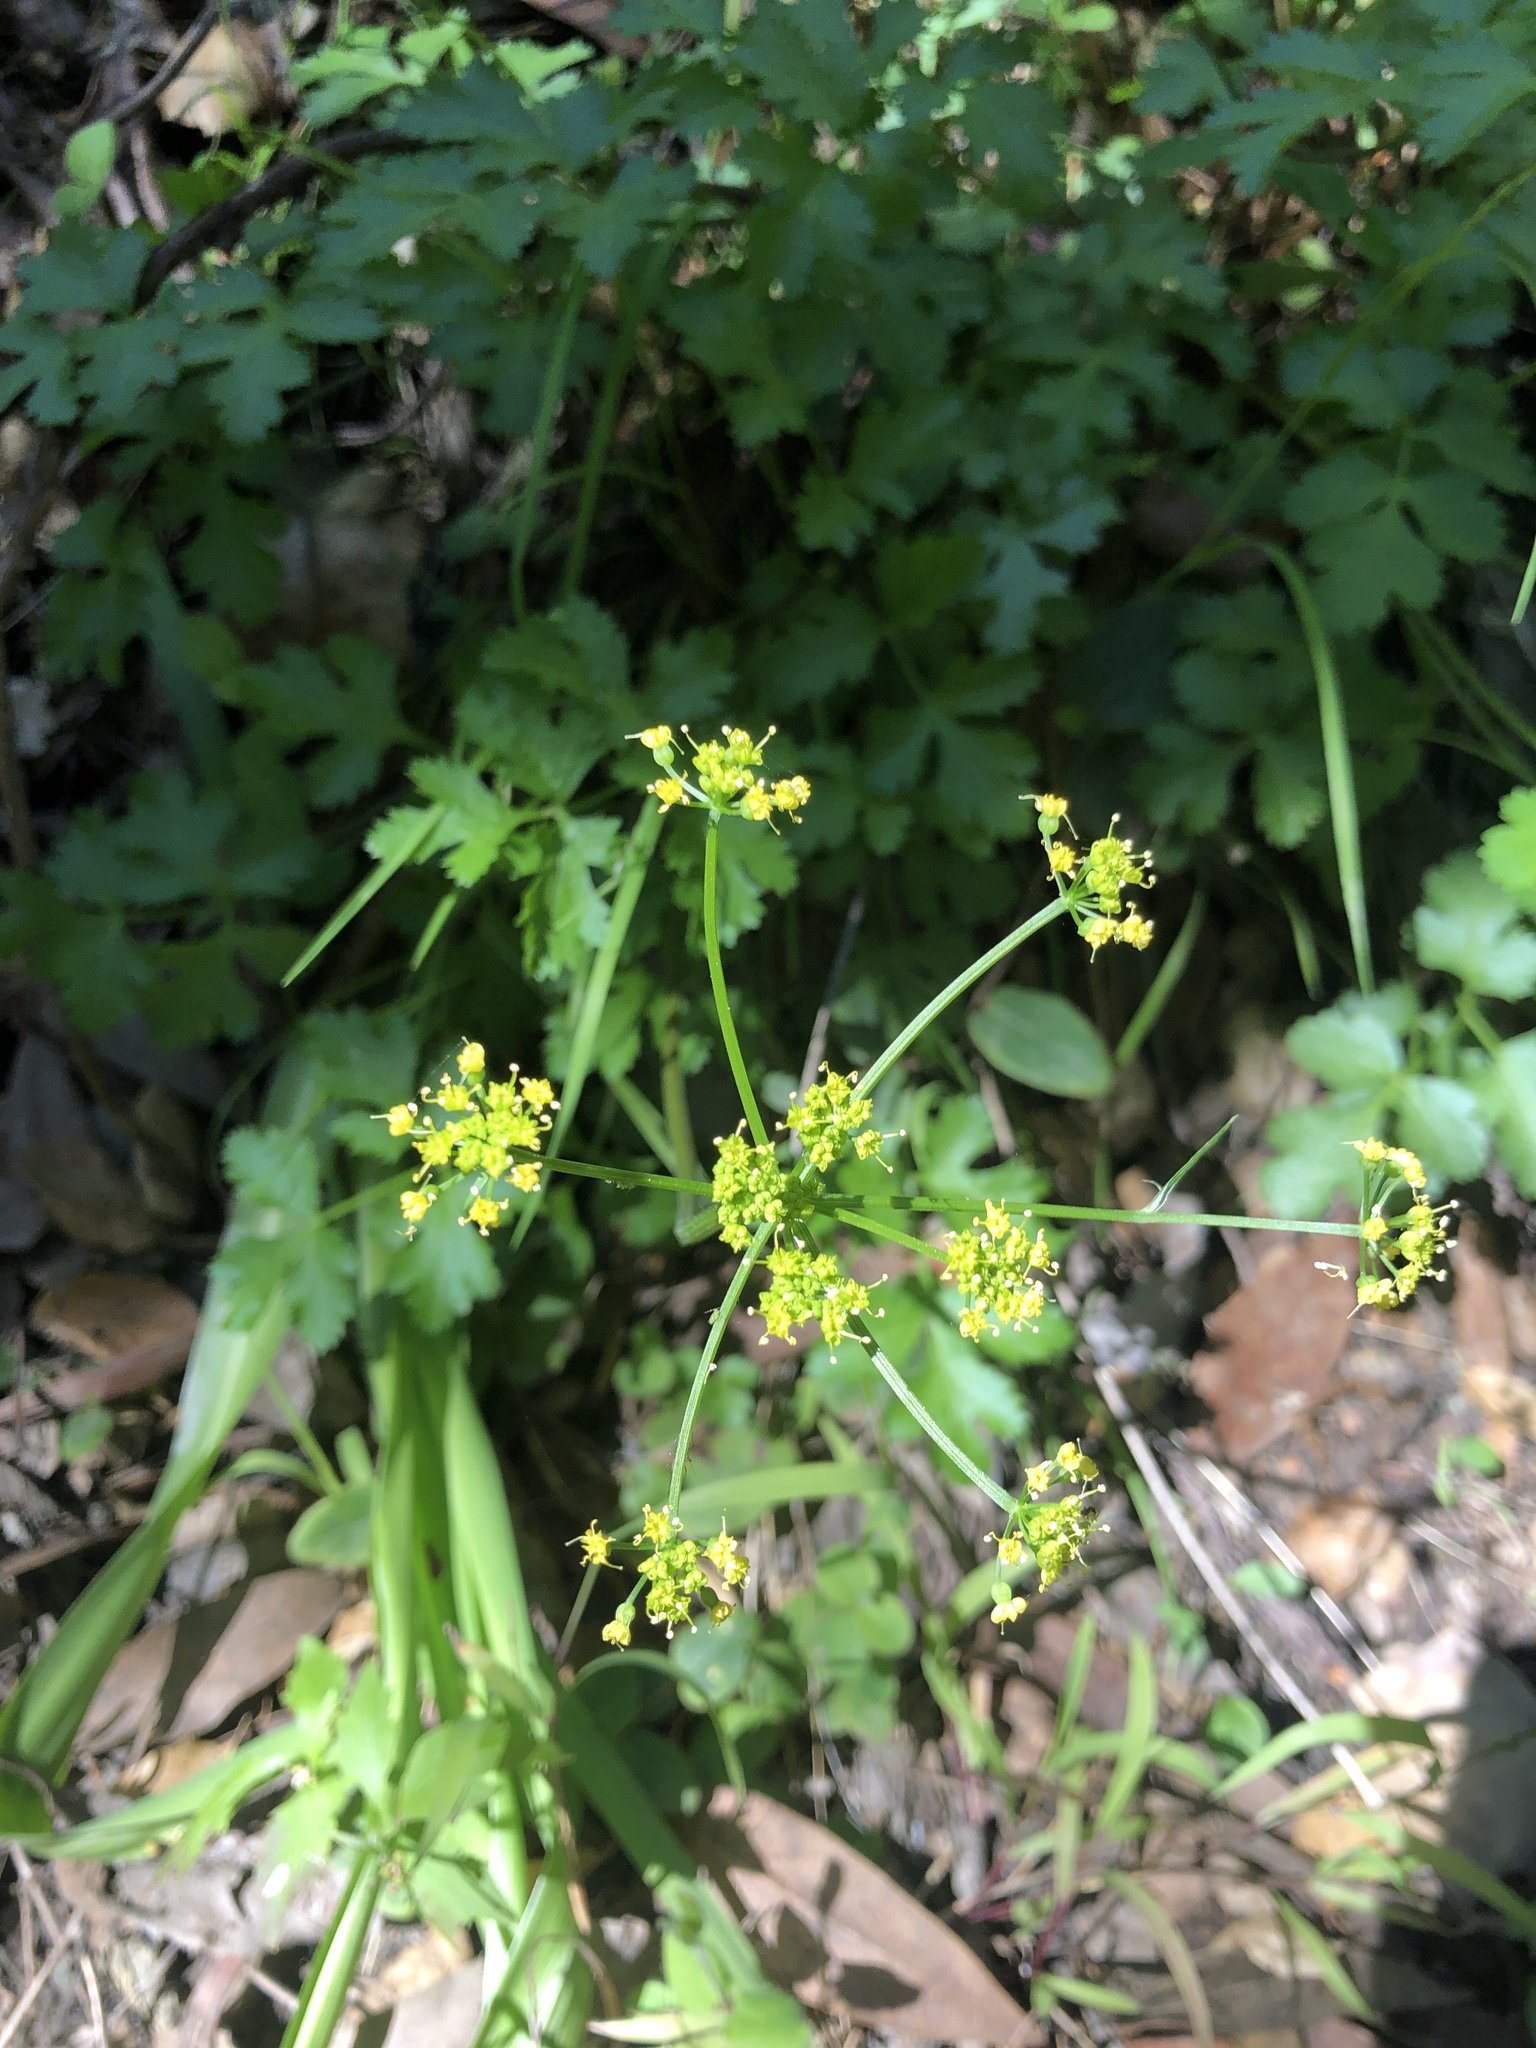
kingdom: Plantae
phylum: Tracheophyta
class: Magnoliopsida
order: Apiales
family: Apiaceae
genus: Tauschia
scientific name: Tauschia kelloggii
